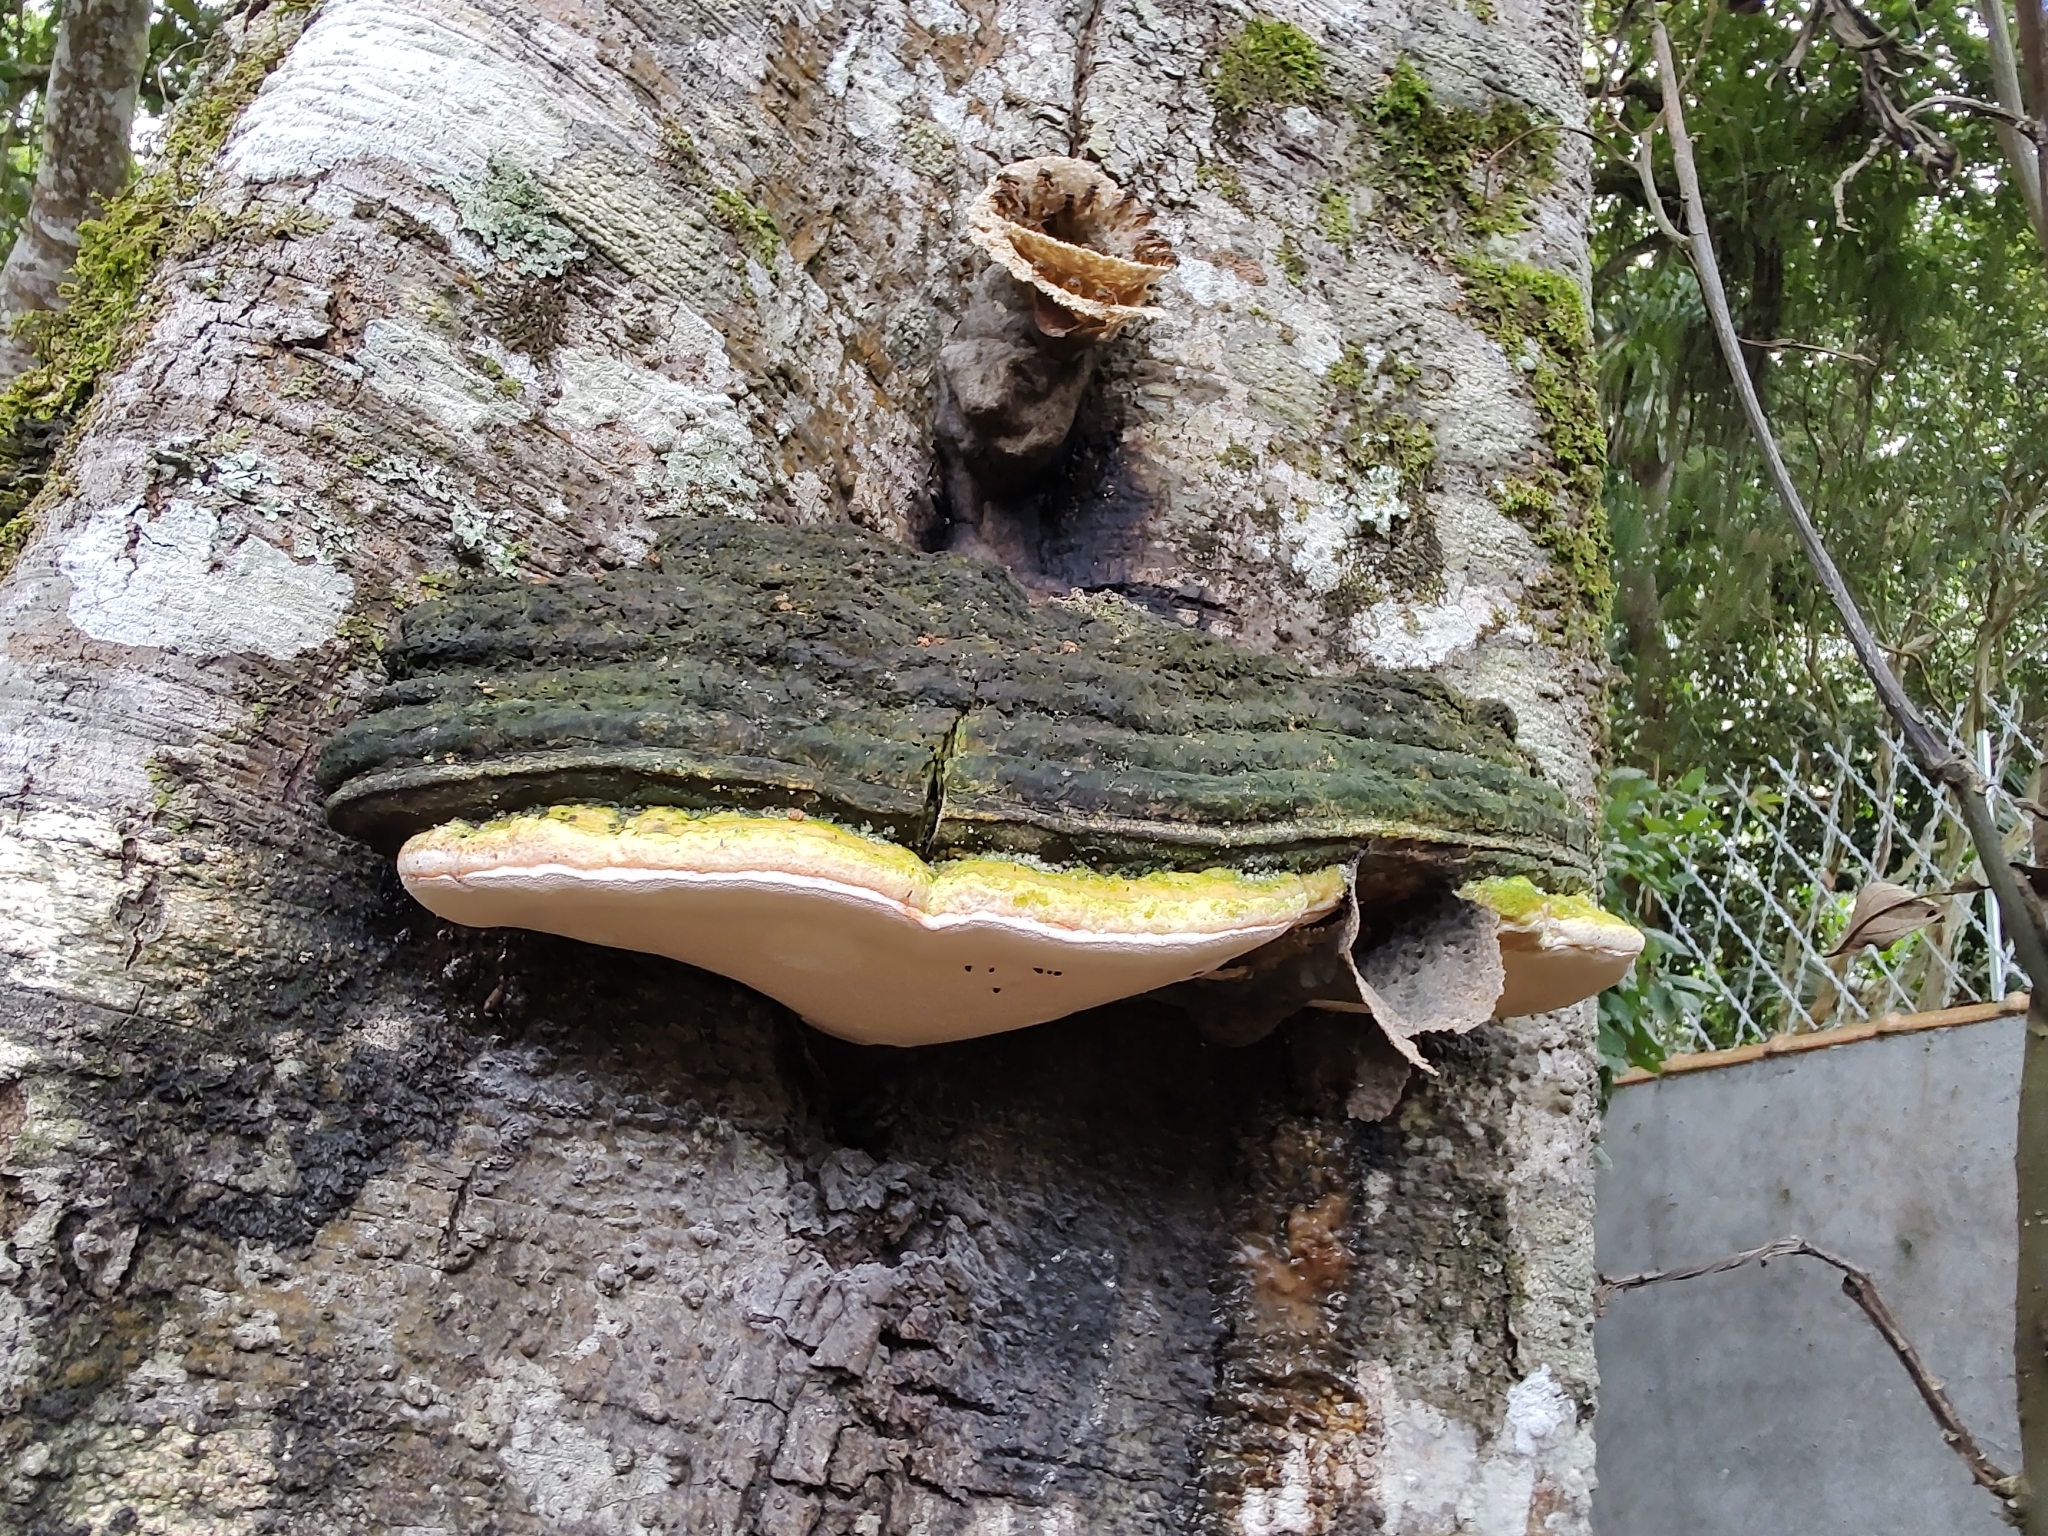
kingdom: Animalia
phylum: Arthropoda
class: Insecta
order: Hymenoptera
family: Apidae
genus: Scaptotrigona
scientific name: Scaptotrigona xanthotricha
